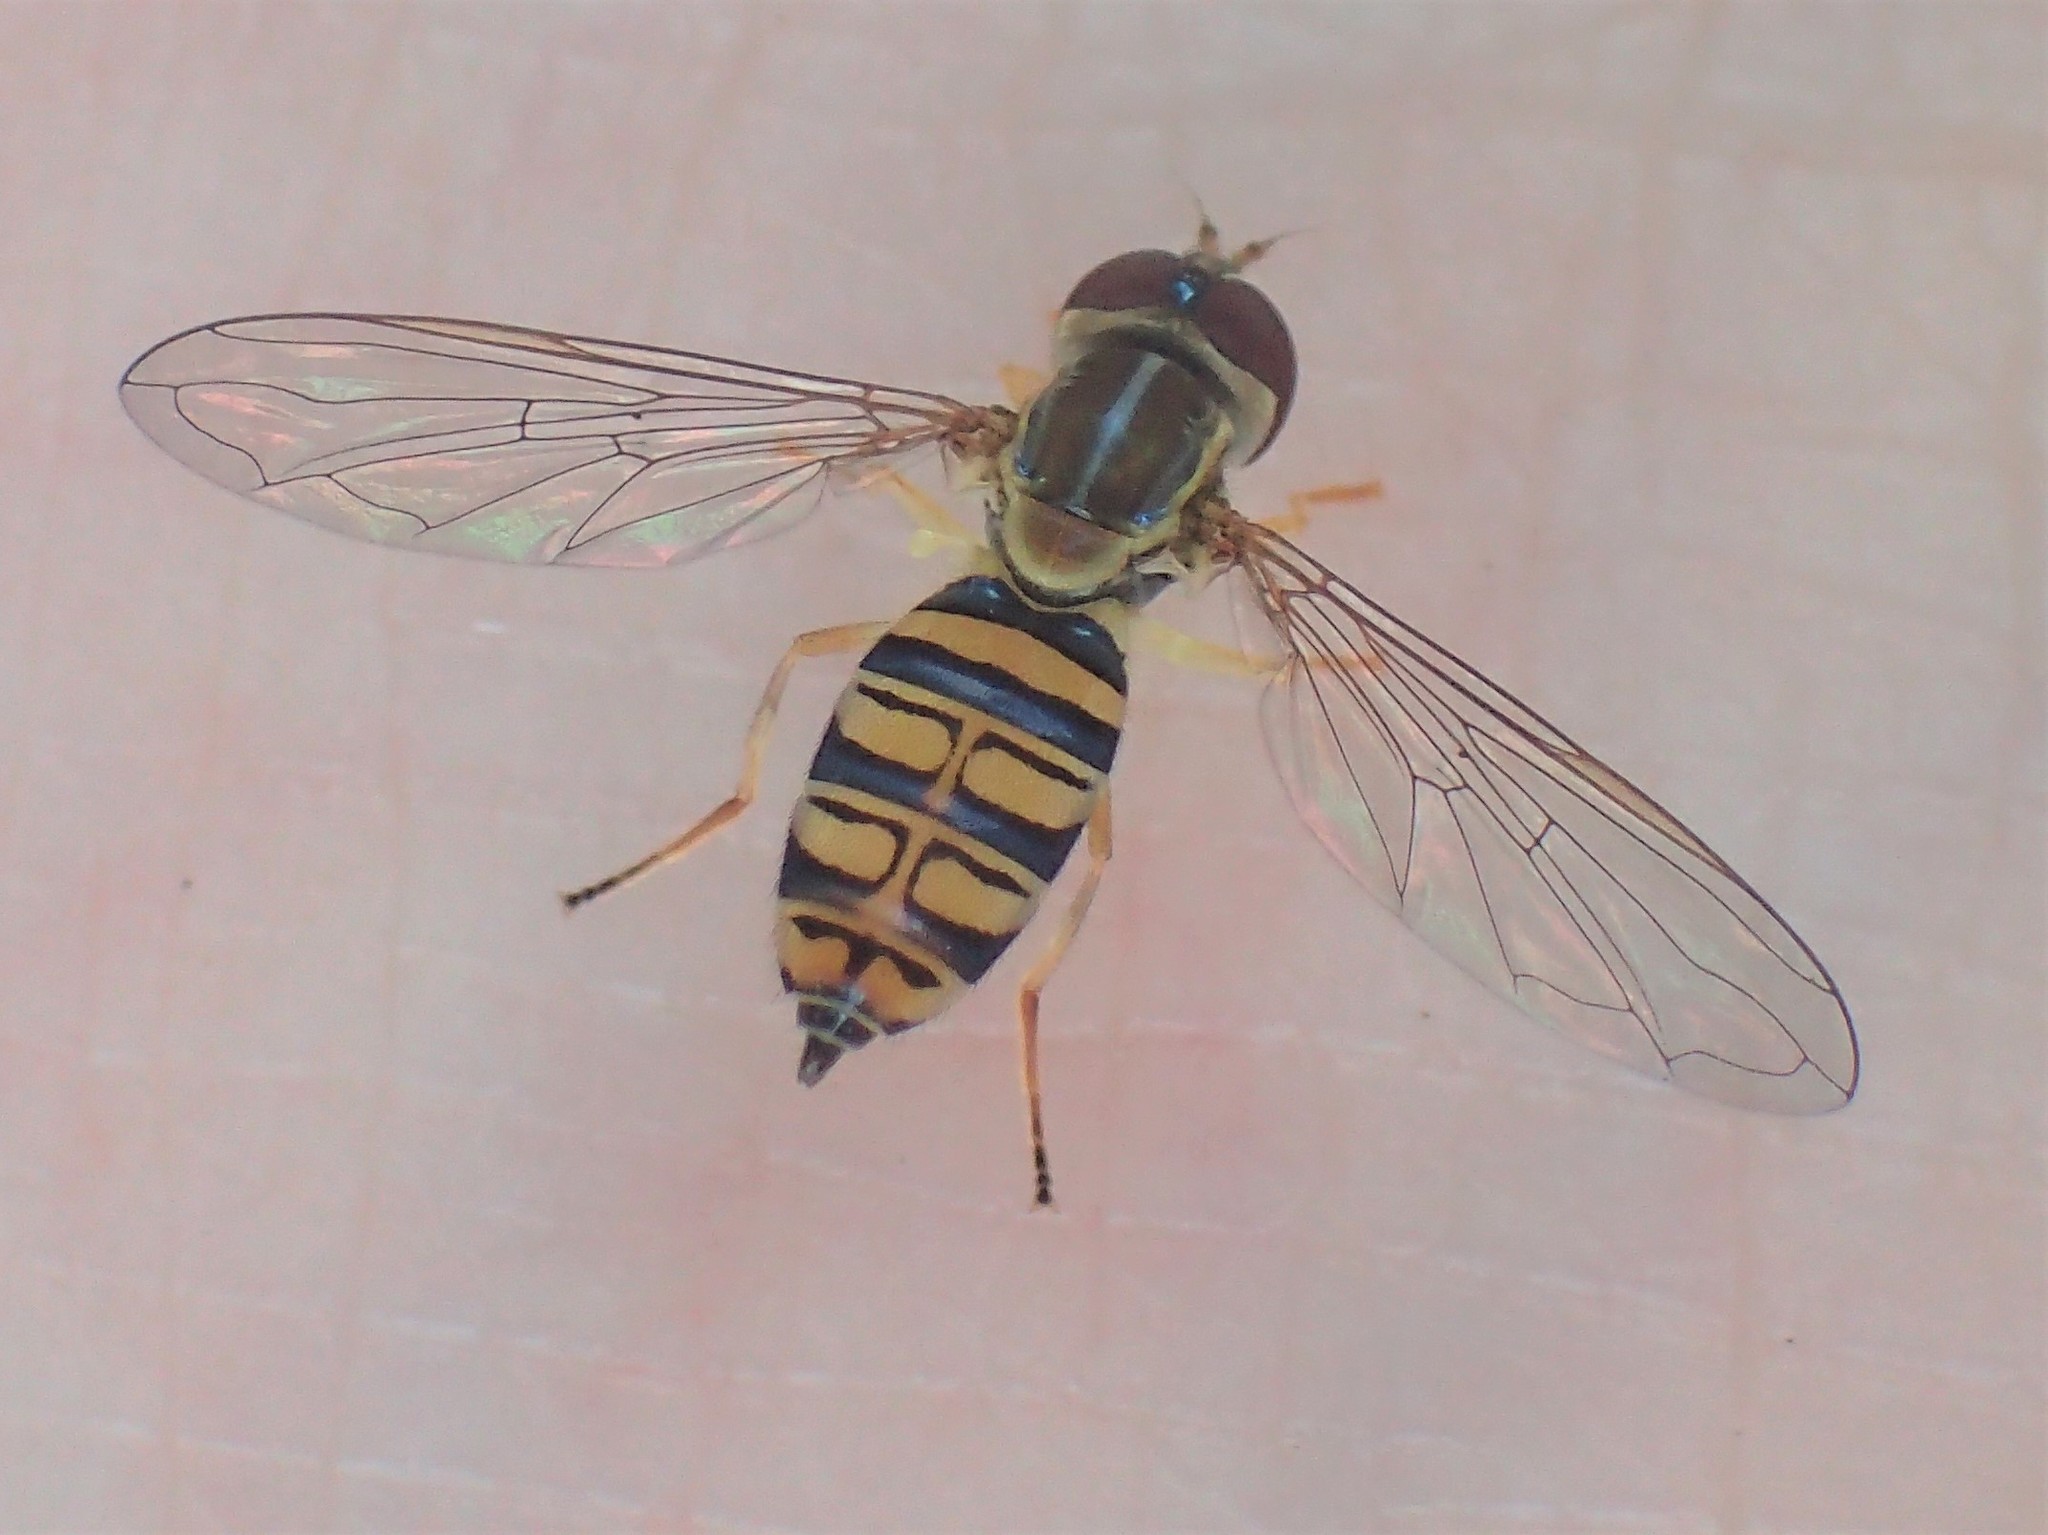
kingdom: Animalia
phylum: Arthropoda
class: Insecta
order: Diptera
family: Syrphidae
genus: Toxomerus
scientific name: Toxomerus politus
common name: Maize calligrapher
